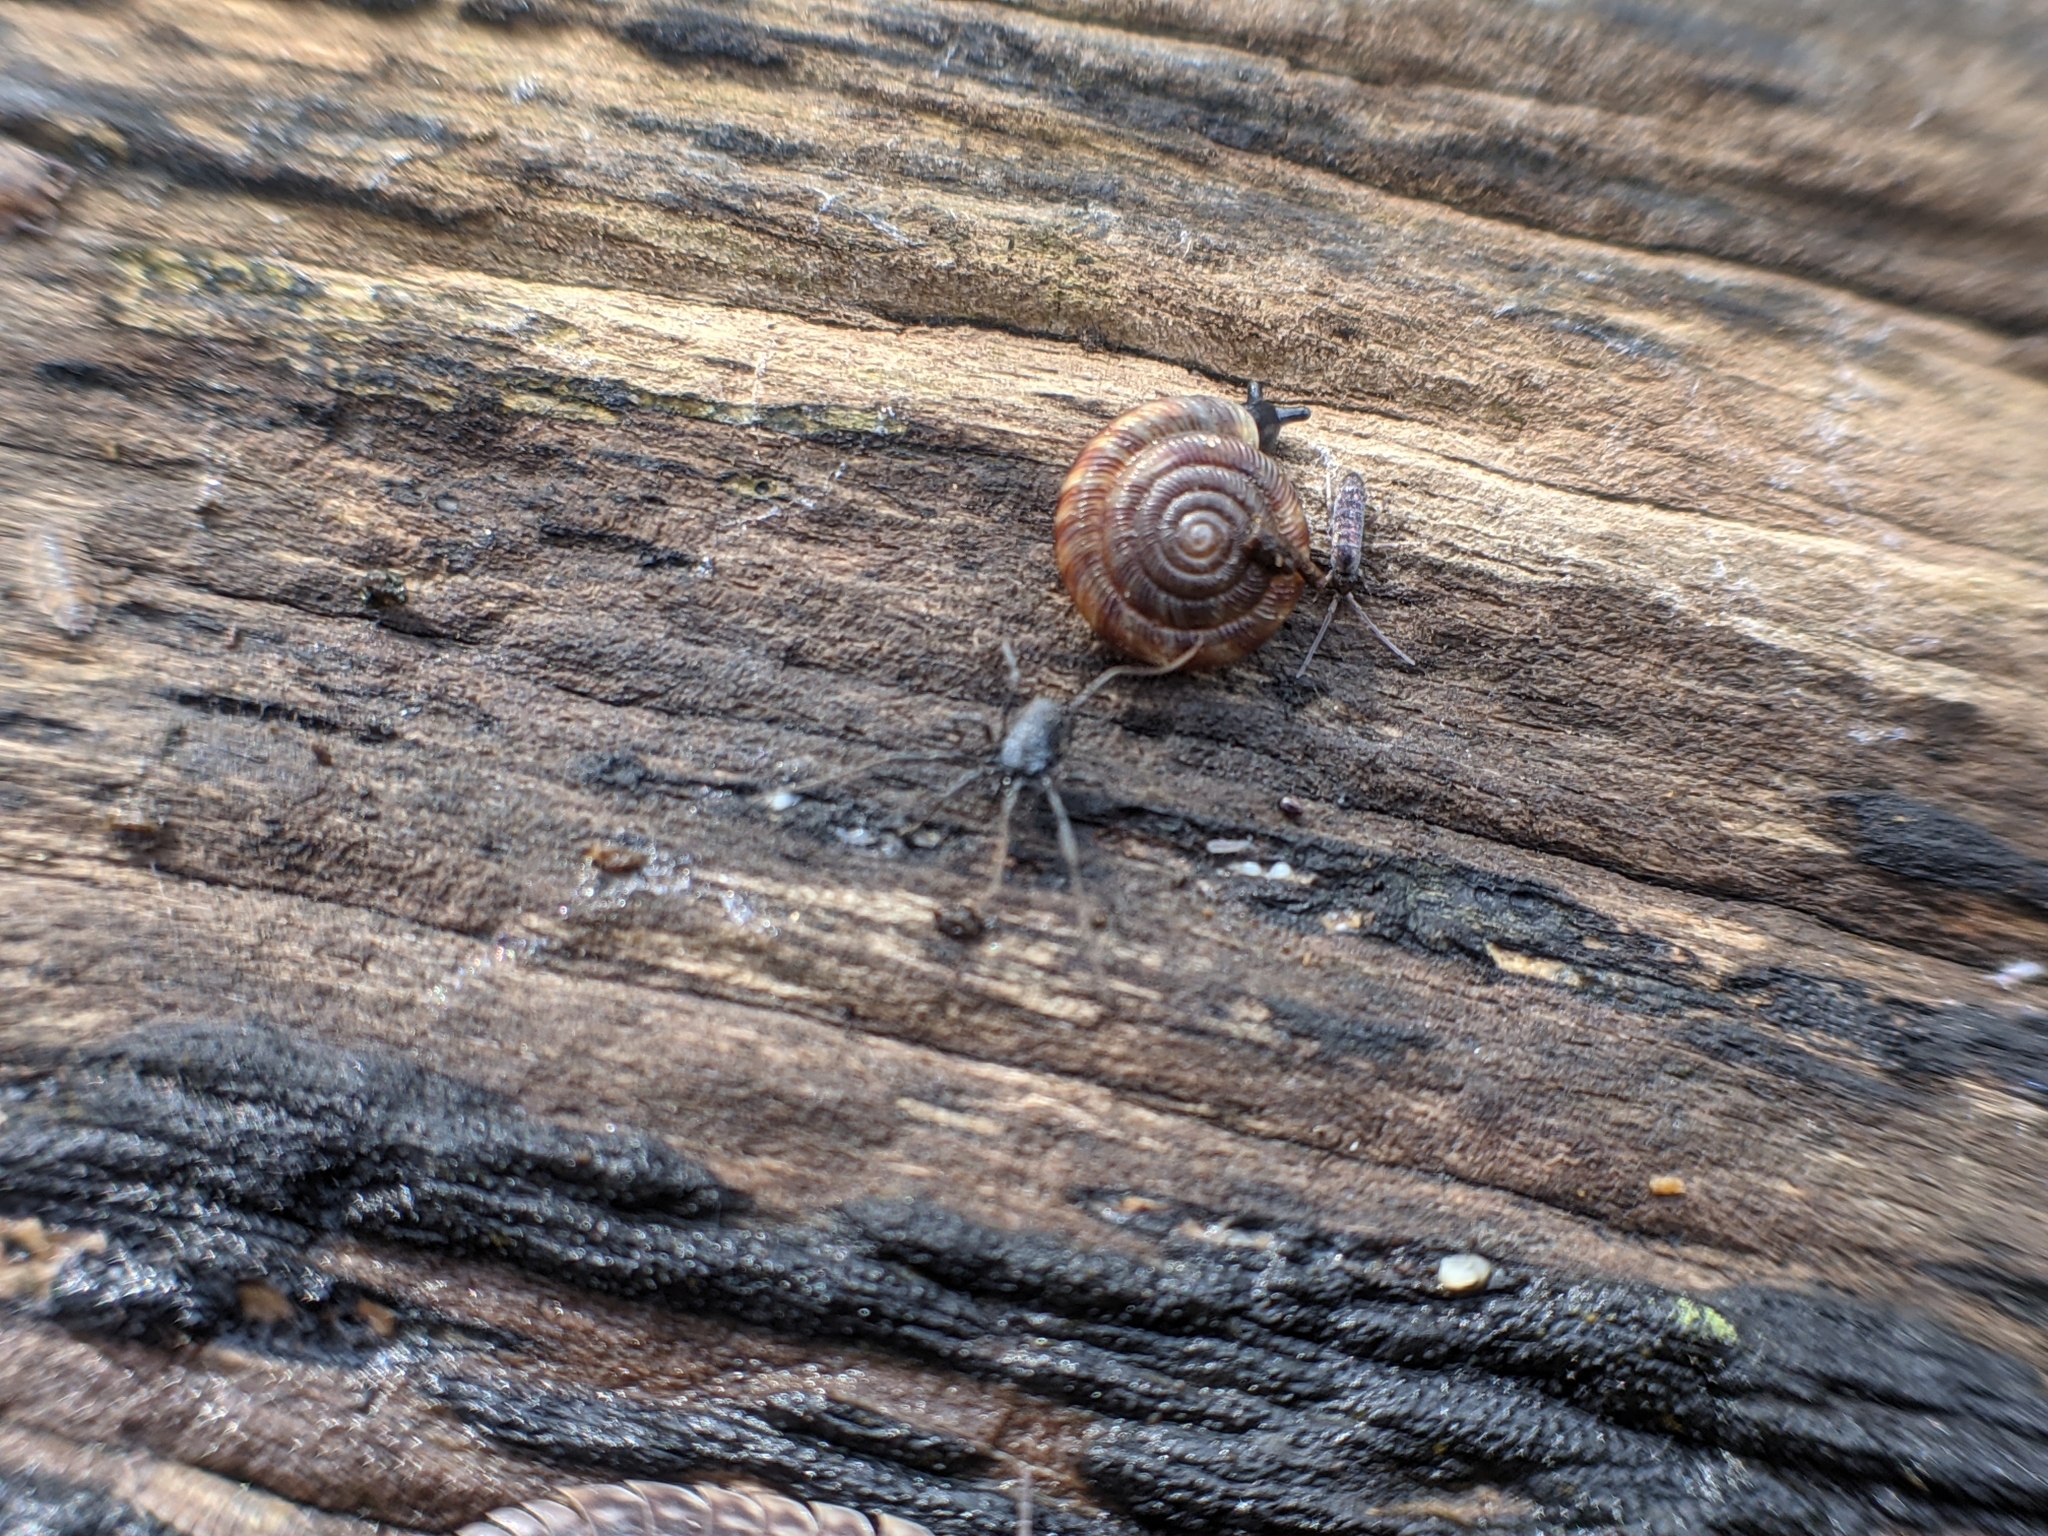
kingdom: Animalia
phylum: Arthropoda
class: Arachnida
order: Opiliones
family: Nemastomatidae
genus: Nemastoma
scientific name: Nemastoma dentigerum
